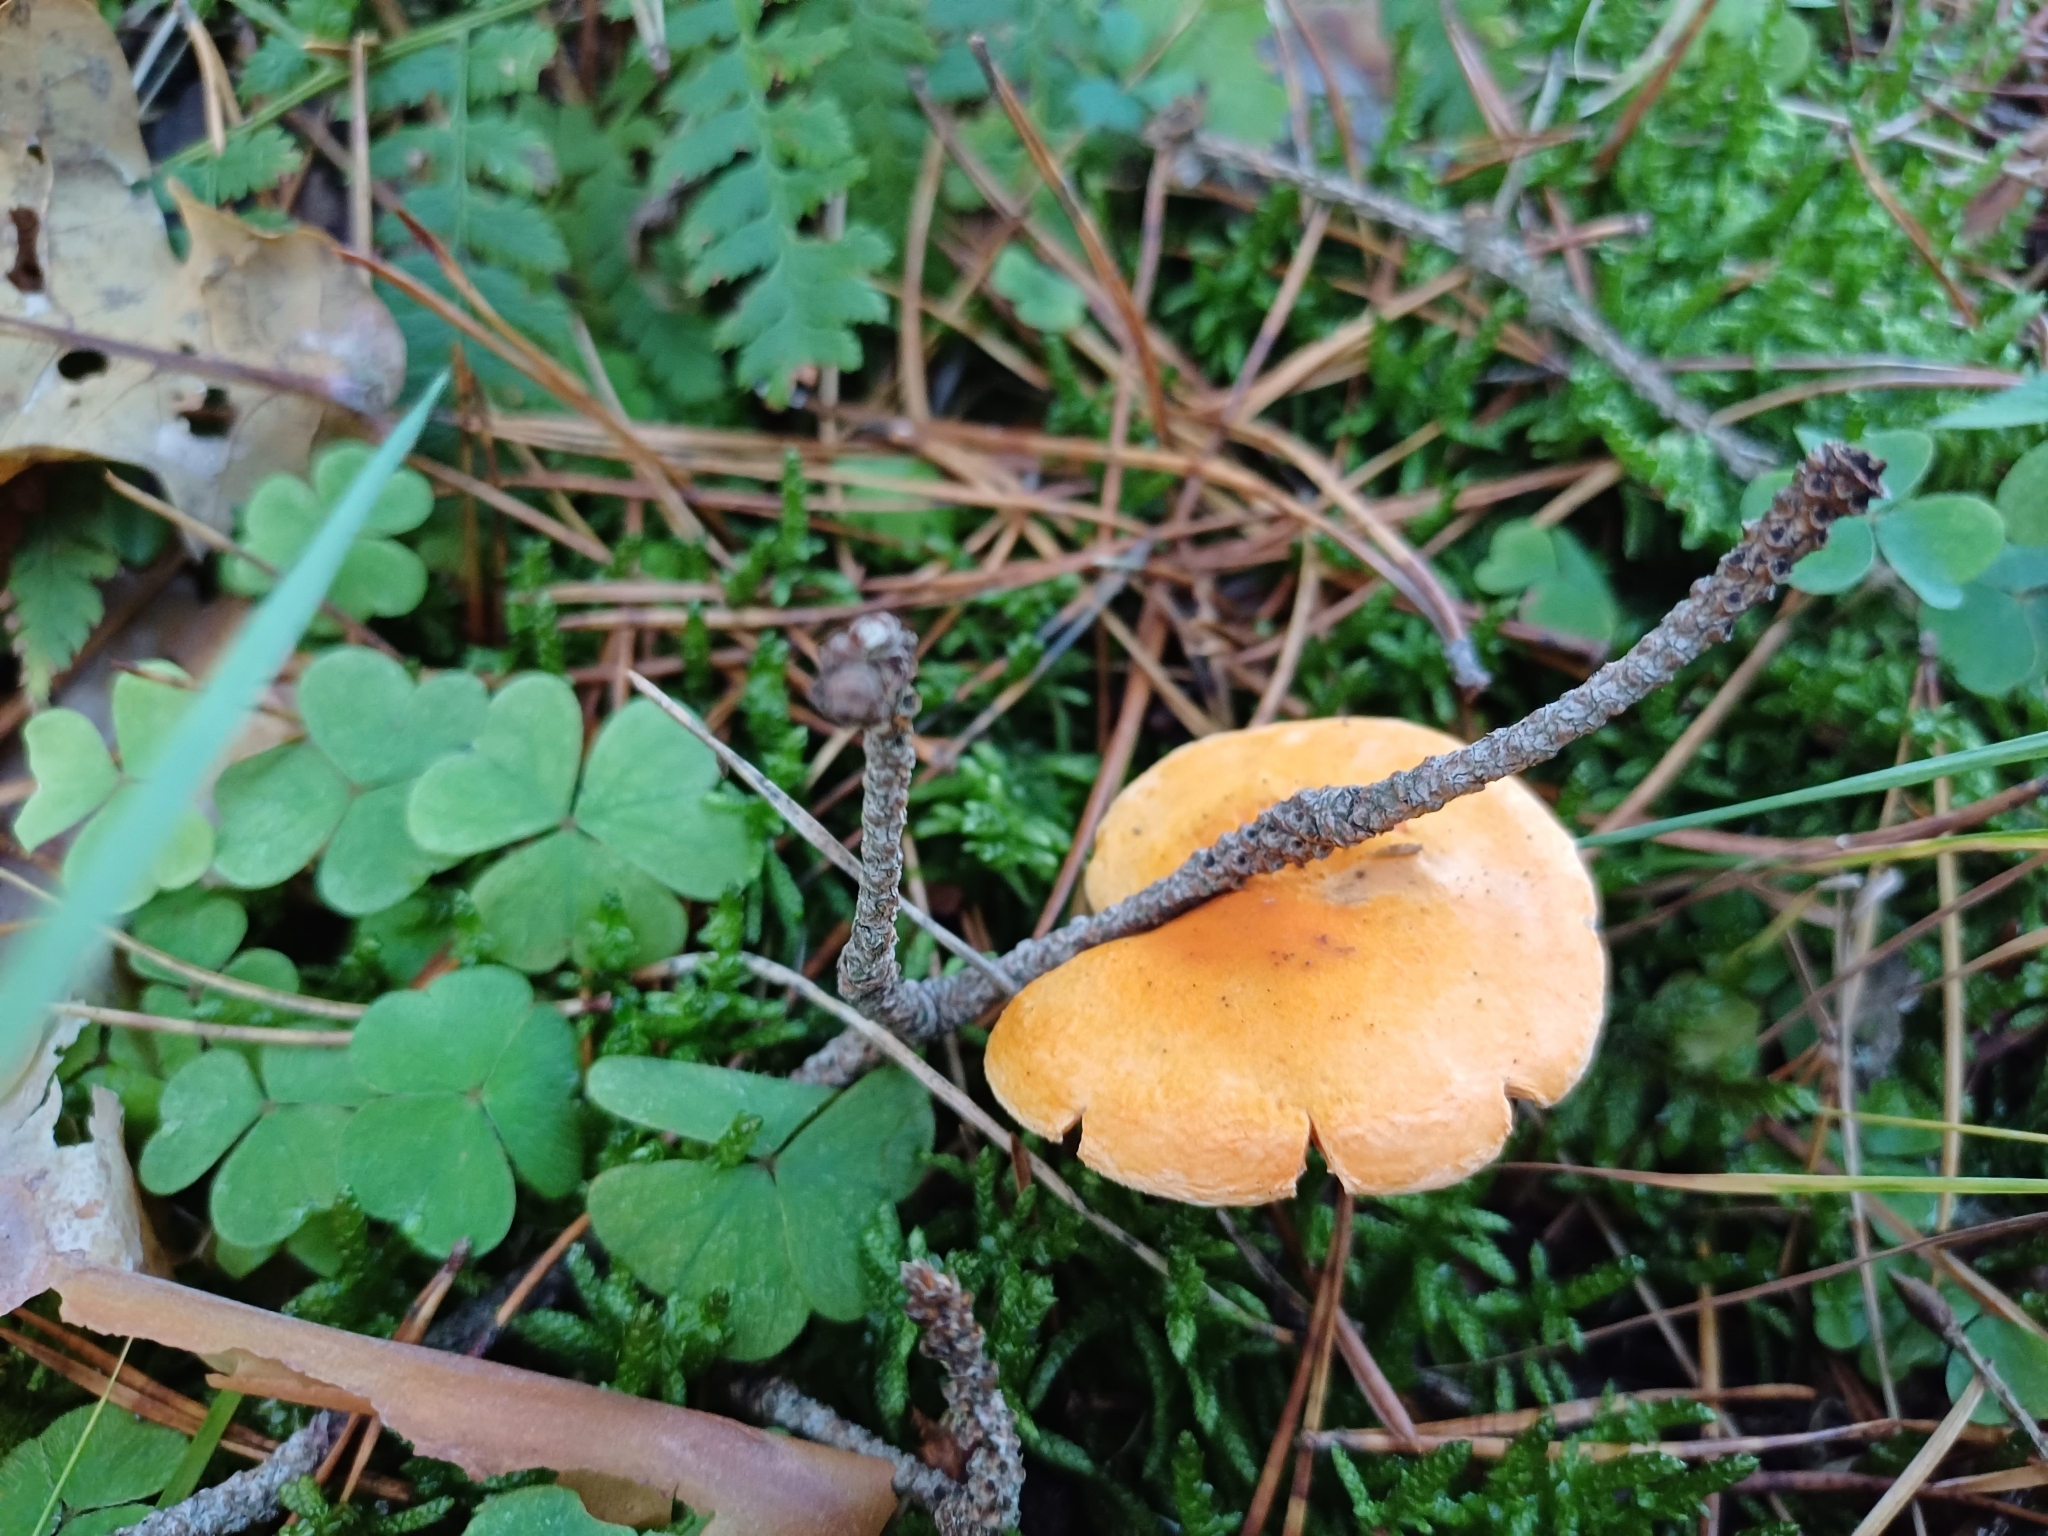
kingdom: Fungi
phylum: Basidiomycota
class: Agaricomycetes
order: Boletales
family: Hygrophoropsidaceae
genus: Hygrophoropsis
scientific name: Hygrophoropsis aurantiaca
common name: False chanterelle
